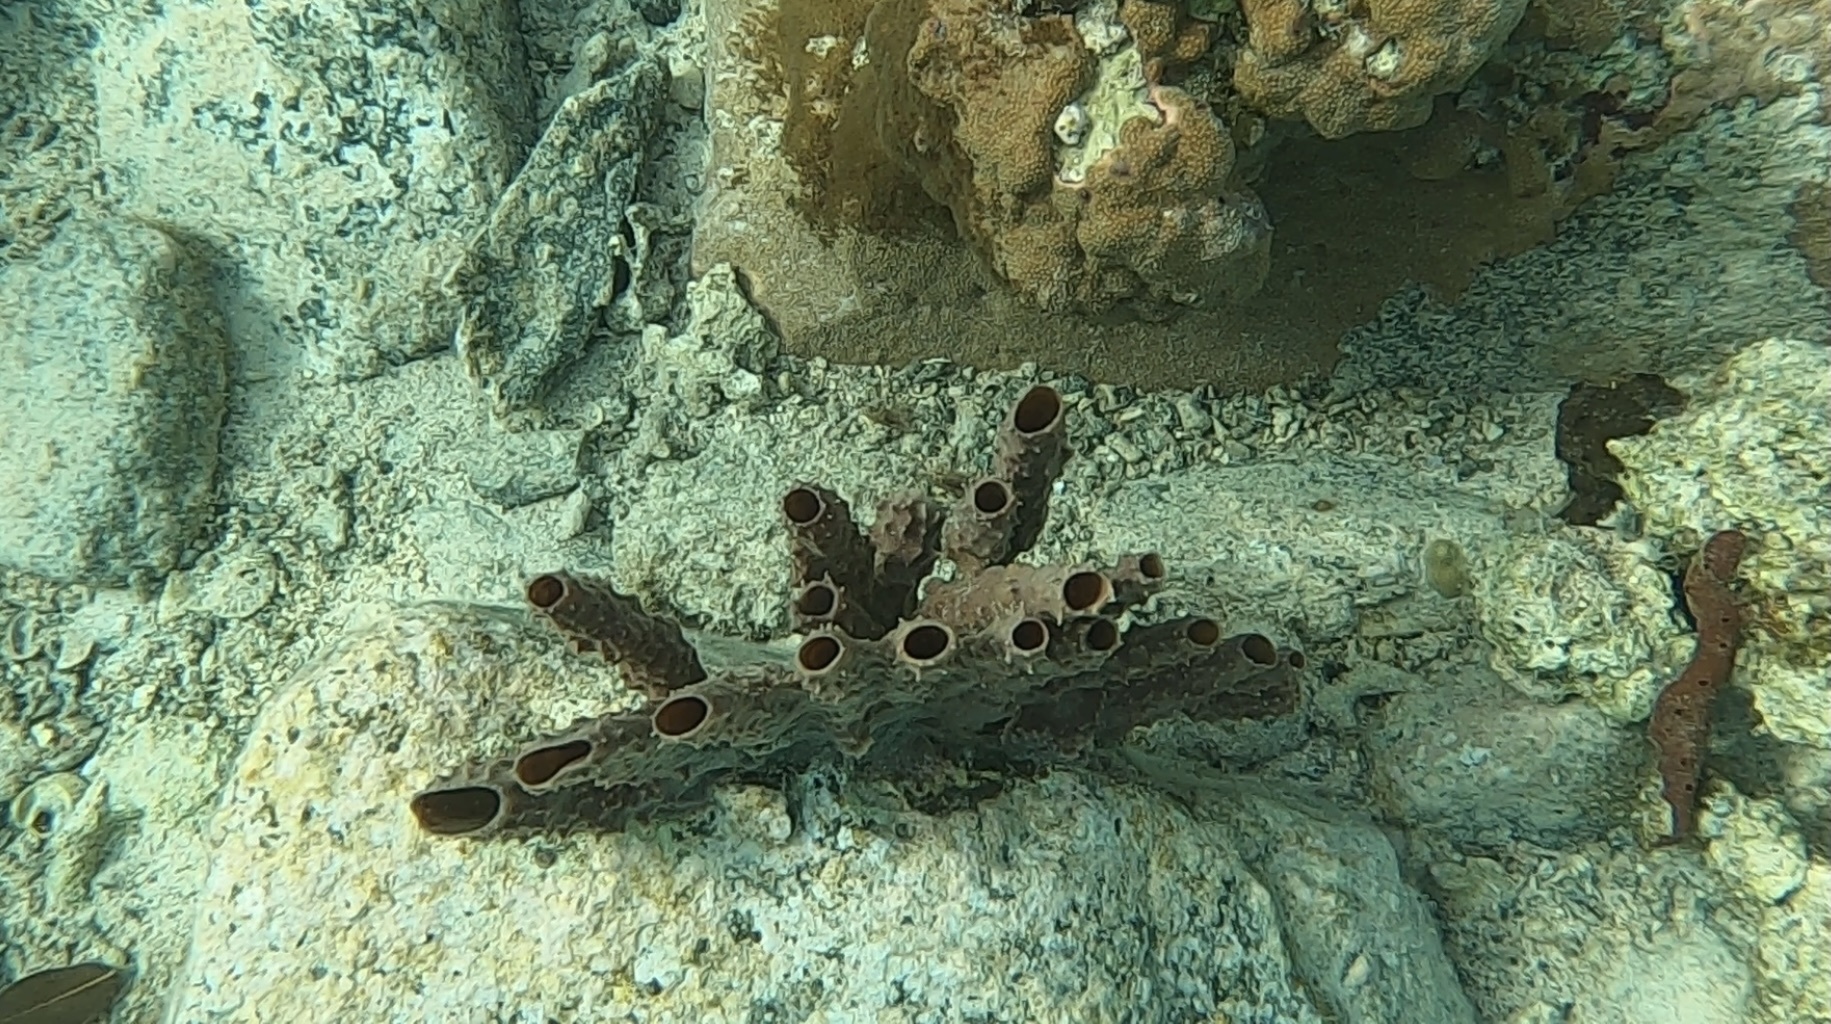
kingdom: Animalia
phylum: Porifera
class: Demospongiae
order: Haplosclerida
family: Callyspongiidae
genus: Callyspongia
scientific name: Callyspongia aculeata
